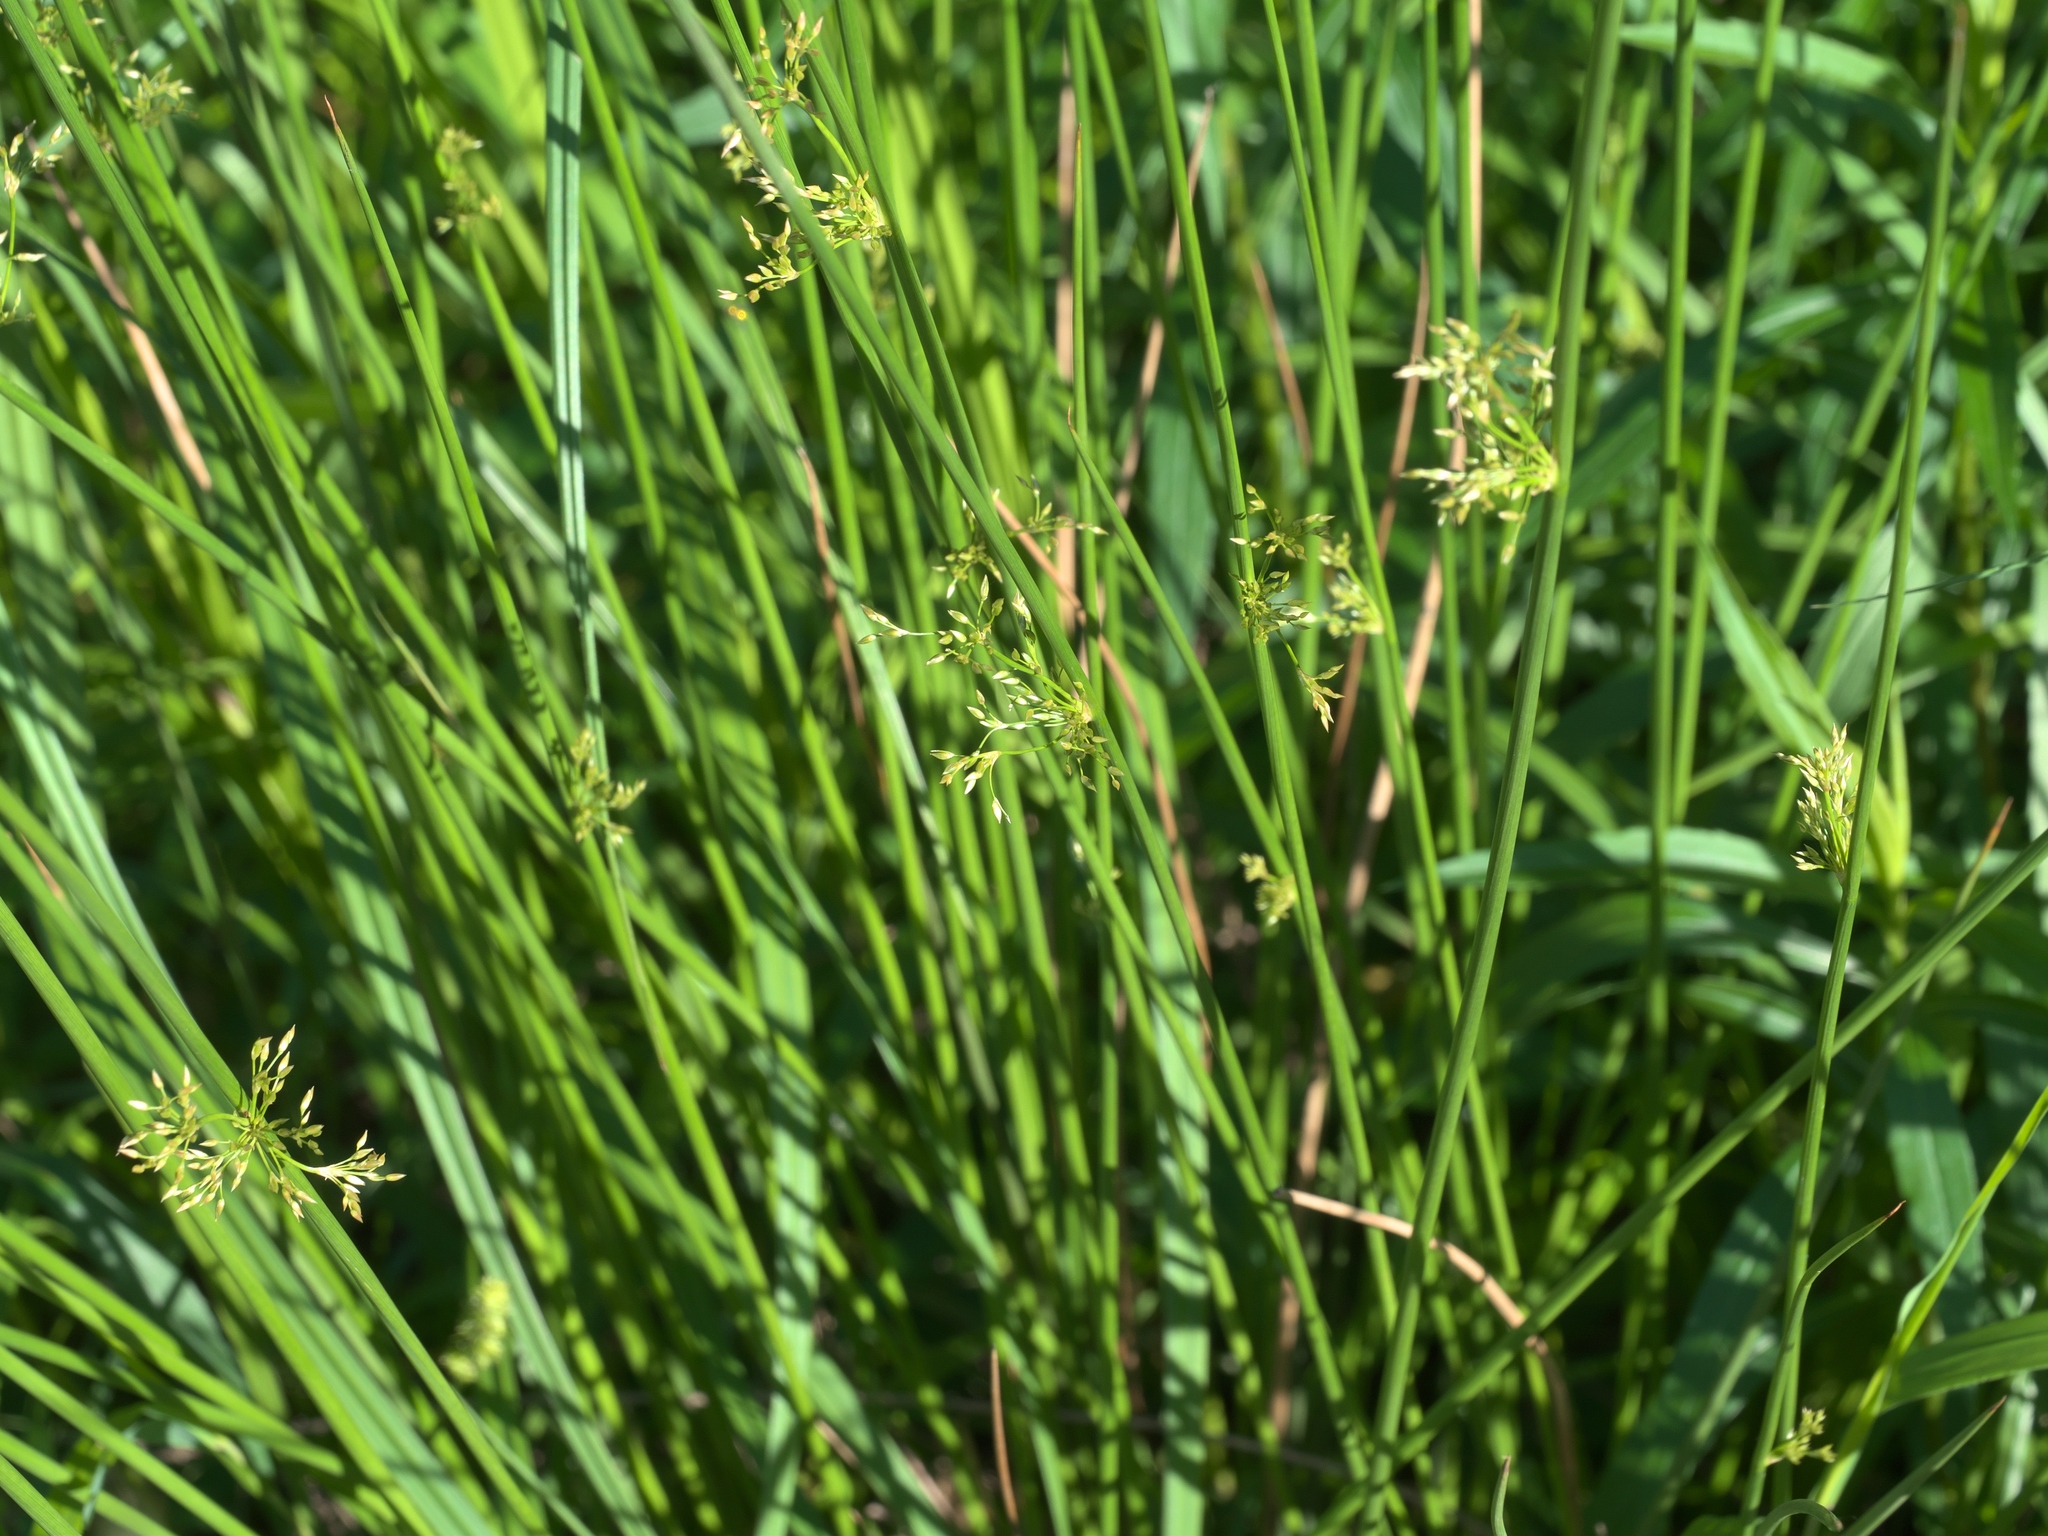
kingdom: Plantae
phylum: Tracheophyta
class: Liliopsida
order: Poales
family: Juncaceae
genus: Juncus
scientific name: Juncus effusus
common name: Soft rush
